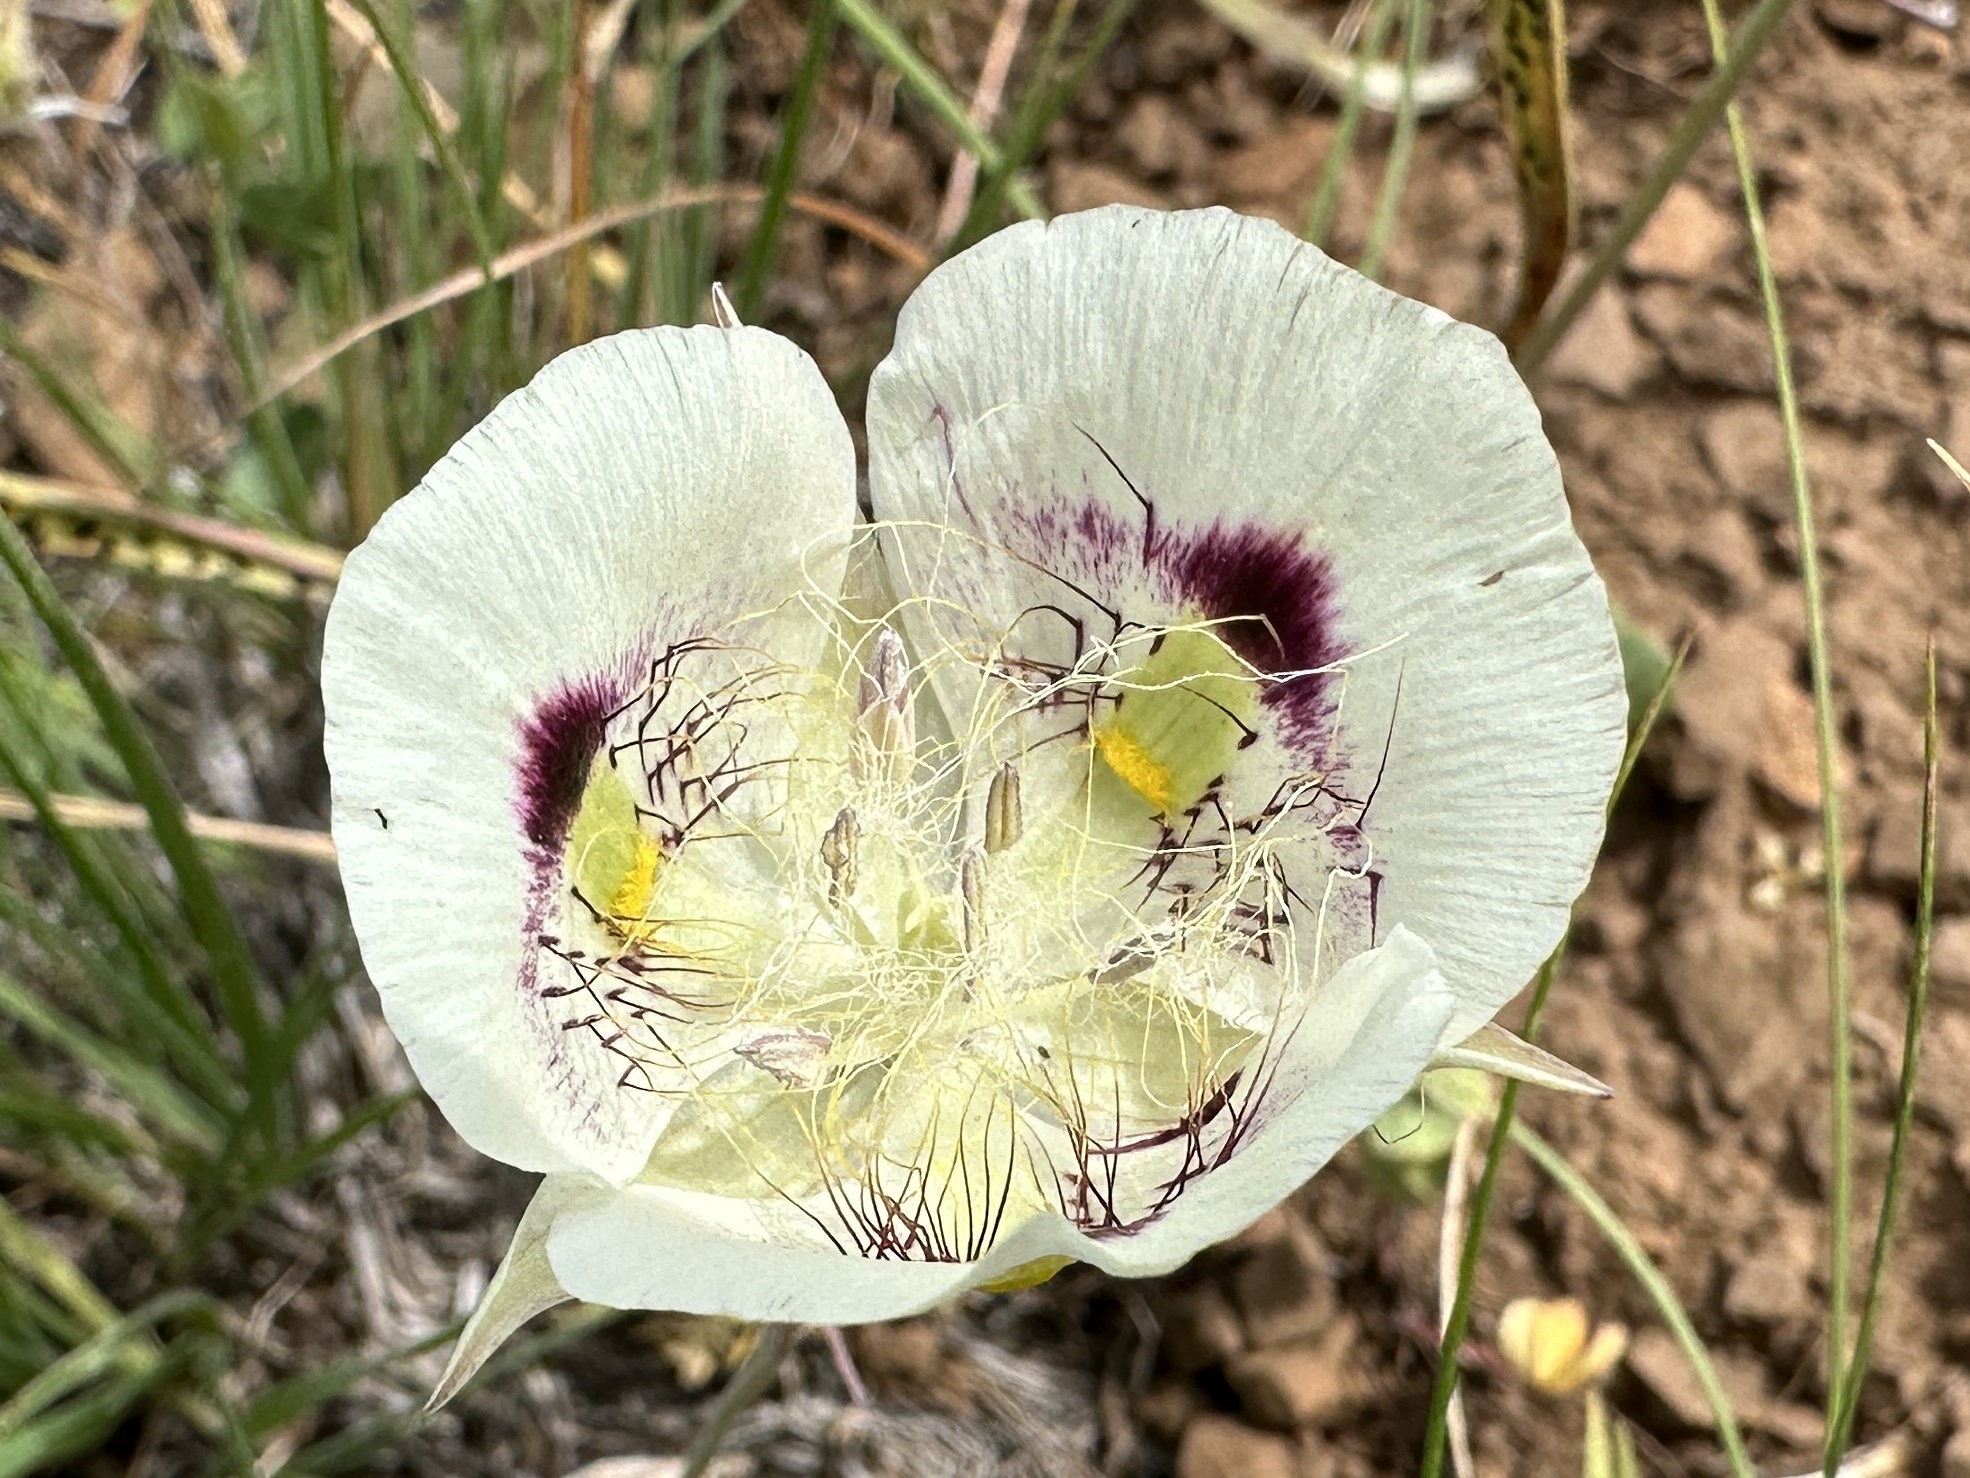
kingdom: Plantae
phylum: Tracheophyta
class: Liliopsida
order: Liliales
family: Liliaceae
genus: Calochortus
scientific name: Calochortus eurycarpus
